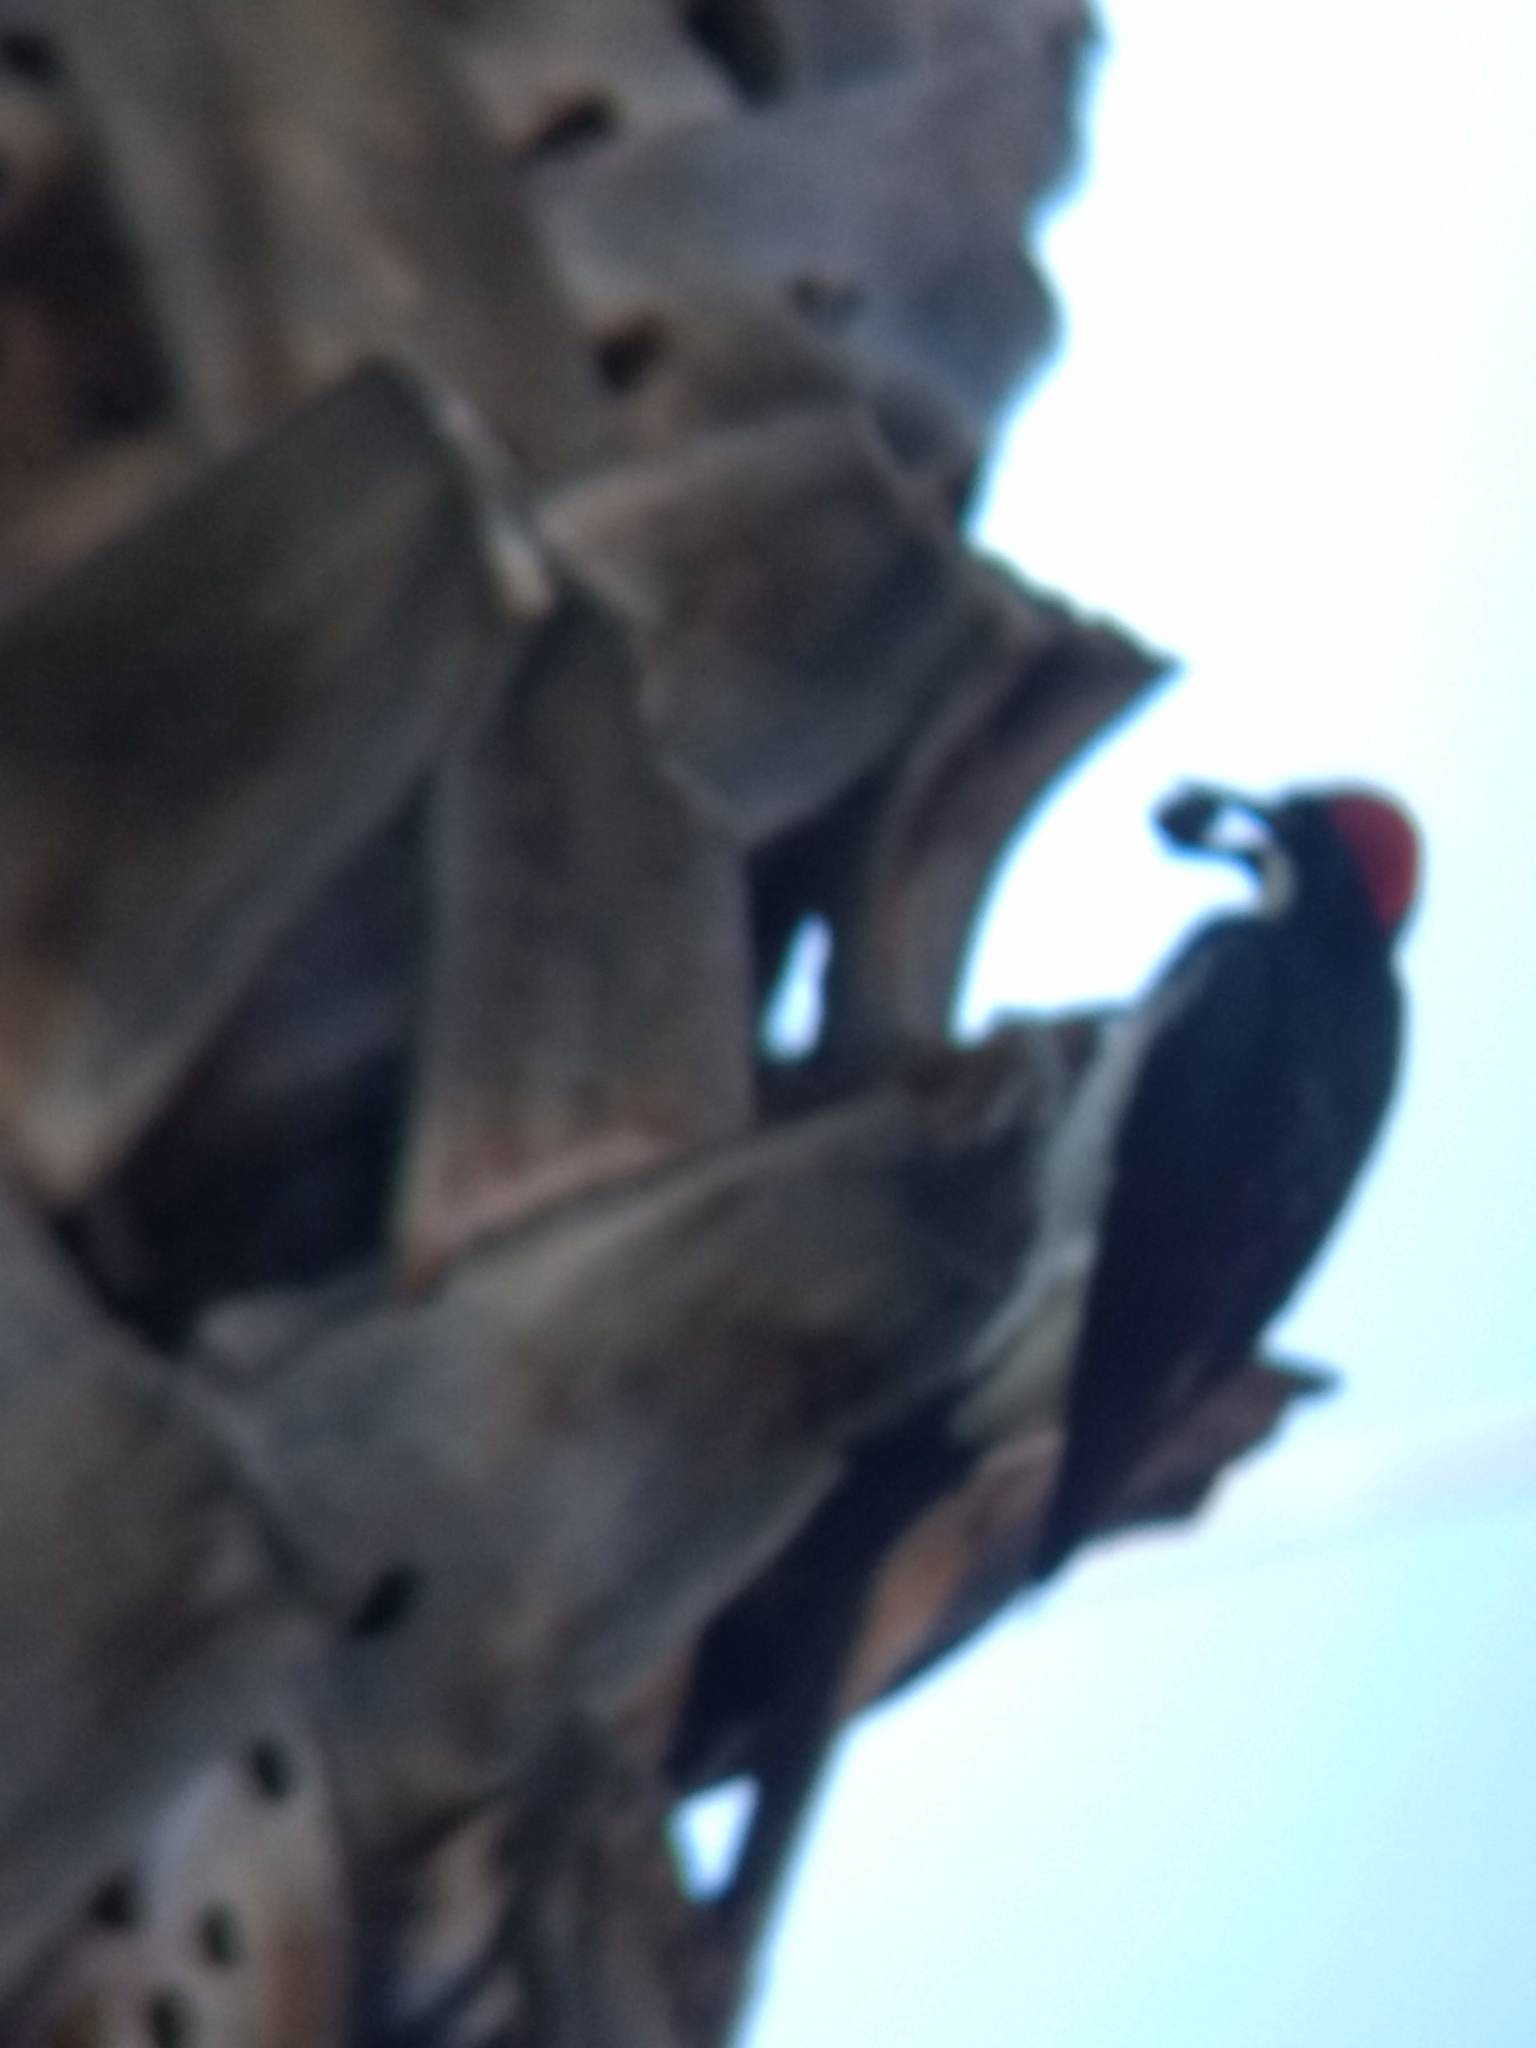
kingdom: Animalia
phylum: Chordata
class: Aves
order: Piciformes
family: Picidae
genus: Melanerpes
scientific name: Melanerpes formicivorus
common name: Acorn woodpecker
